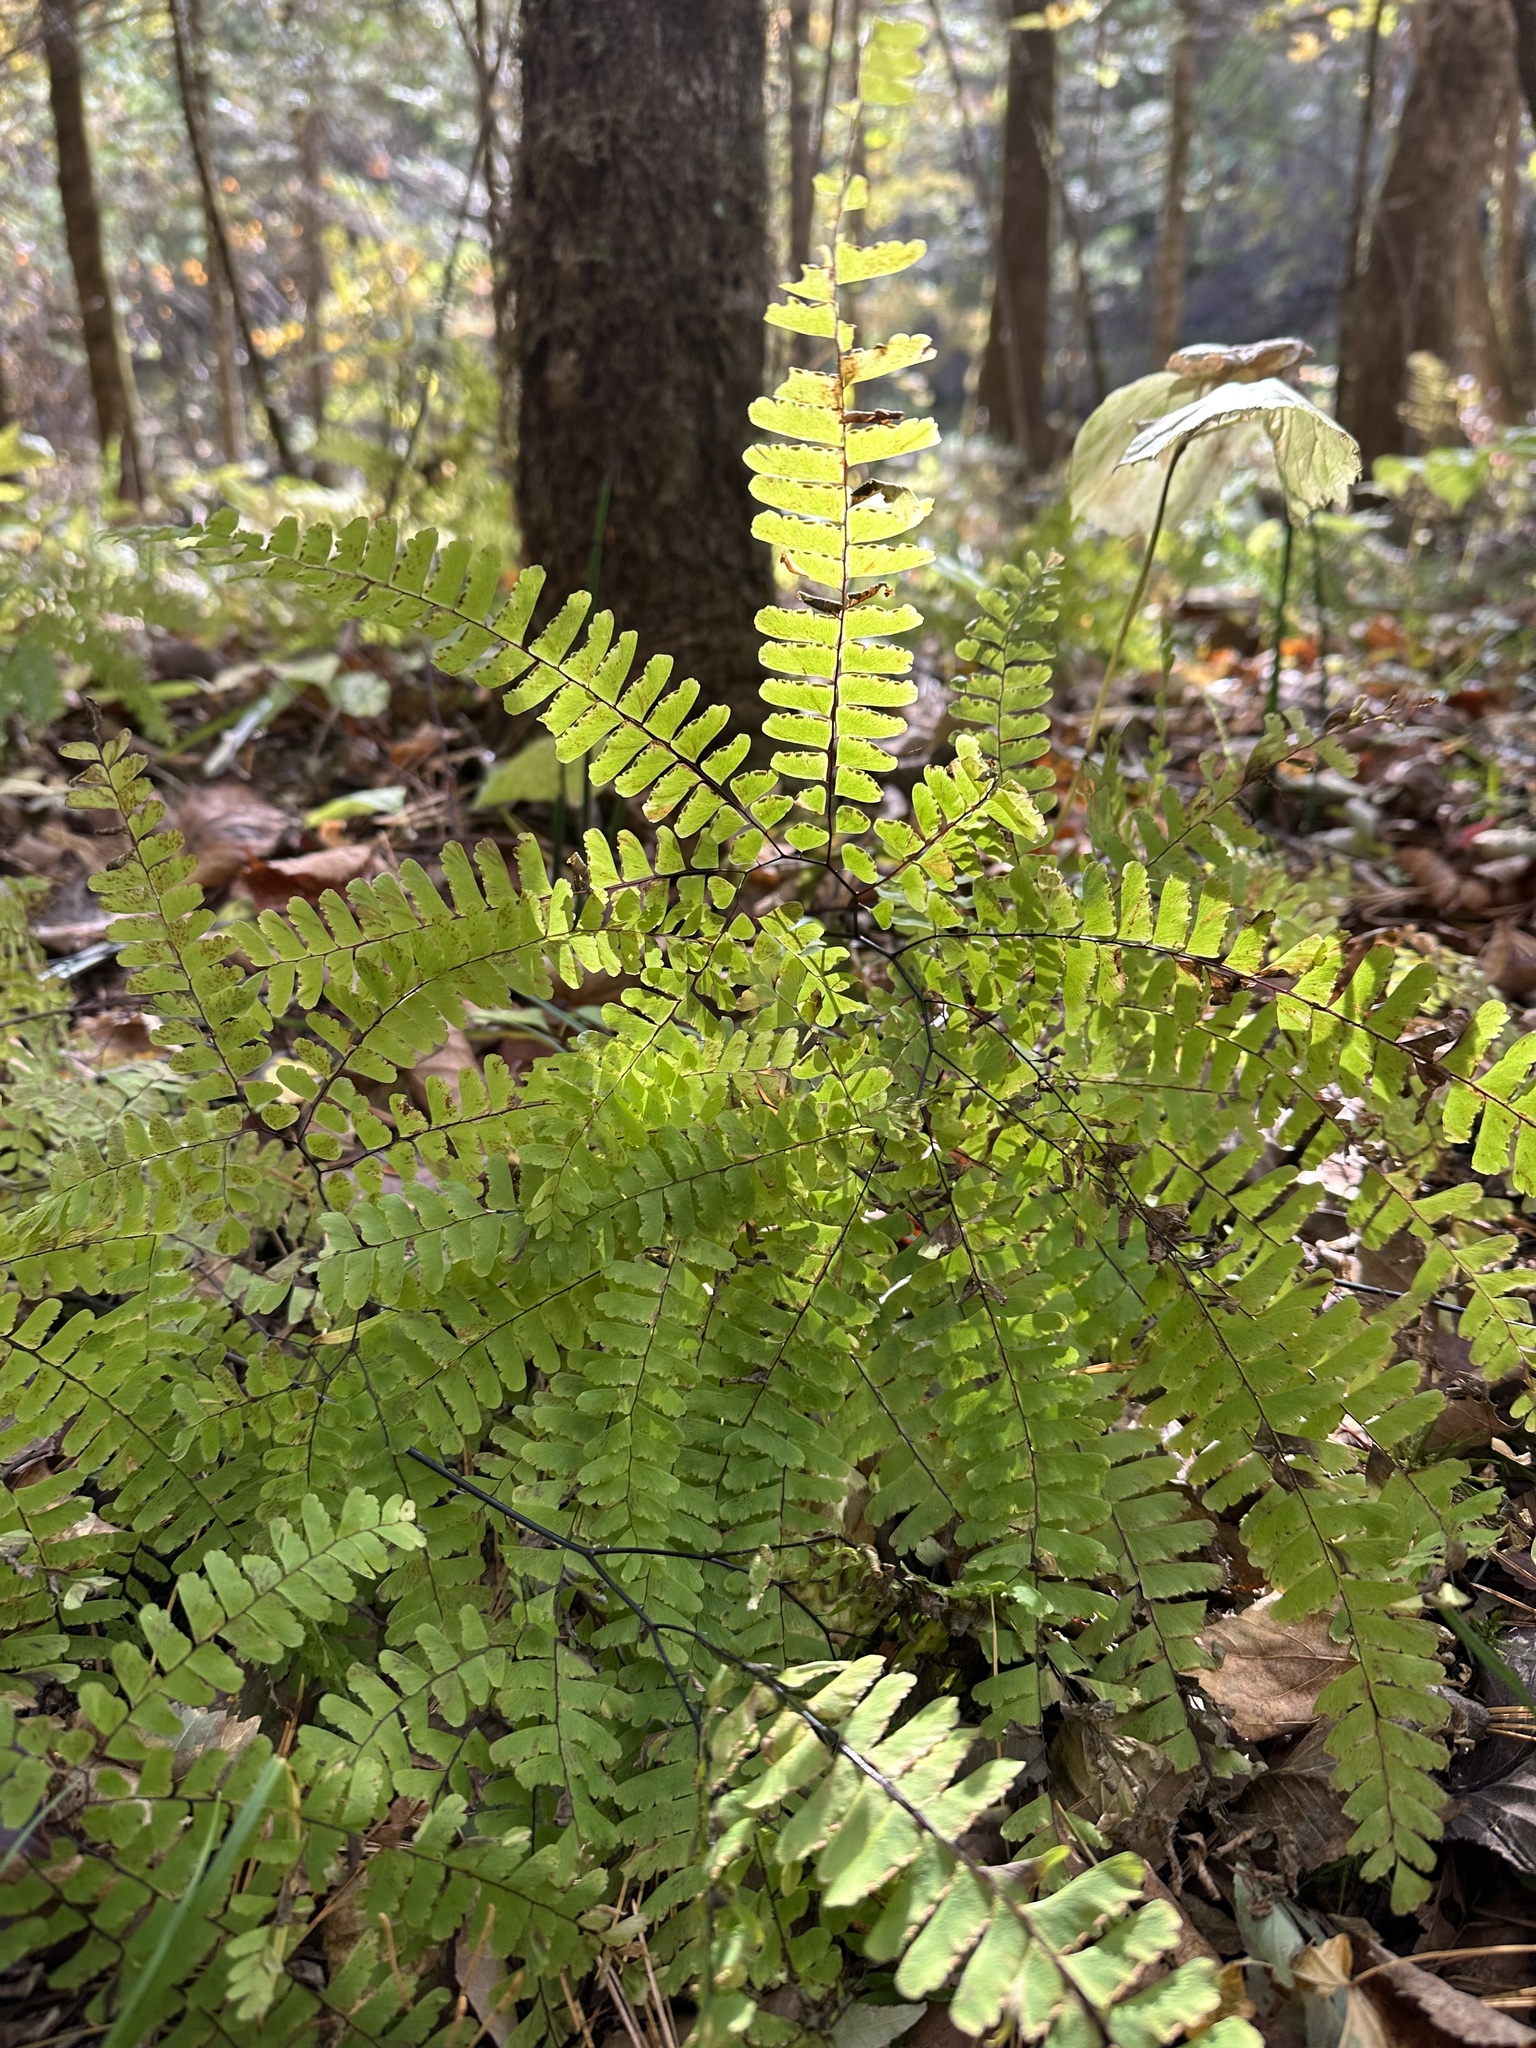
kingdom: Plantae
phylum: Tracheophyta
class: Polypodiopsida
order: Polypodiales
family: Pteridaceae
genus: Adiantum
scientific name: Adiantum pedatum
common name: Five-finger fern
